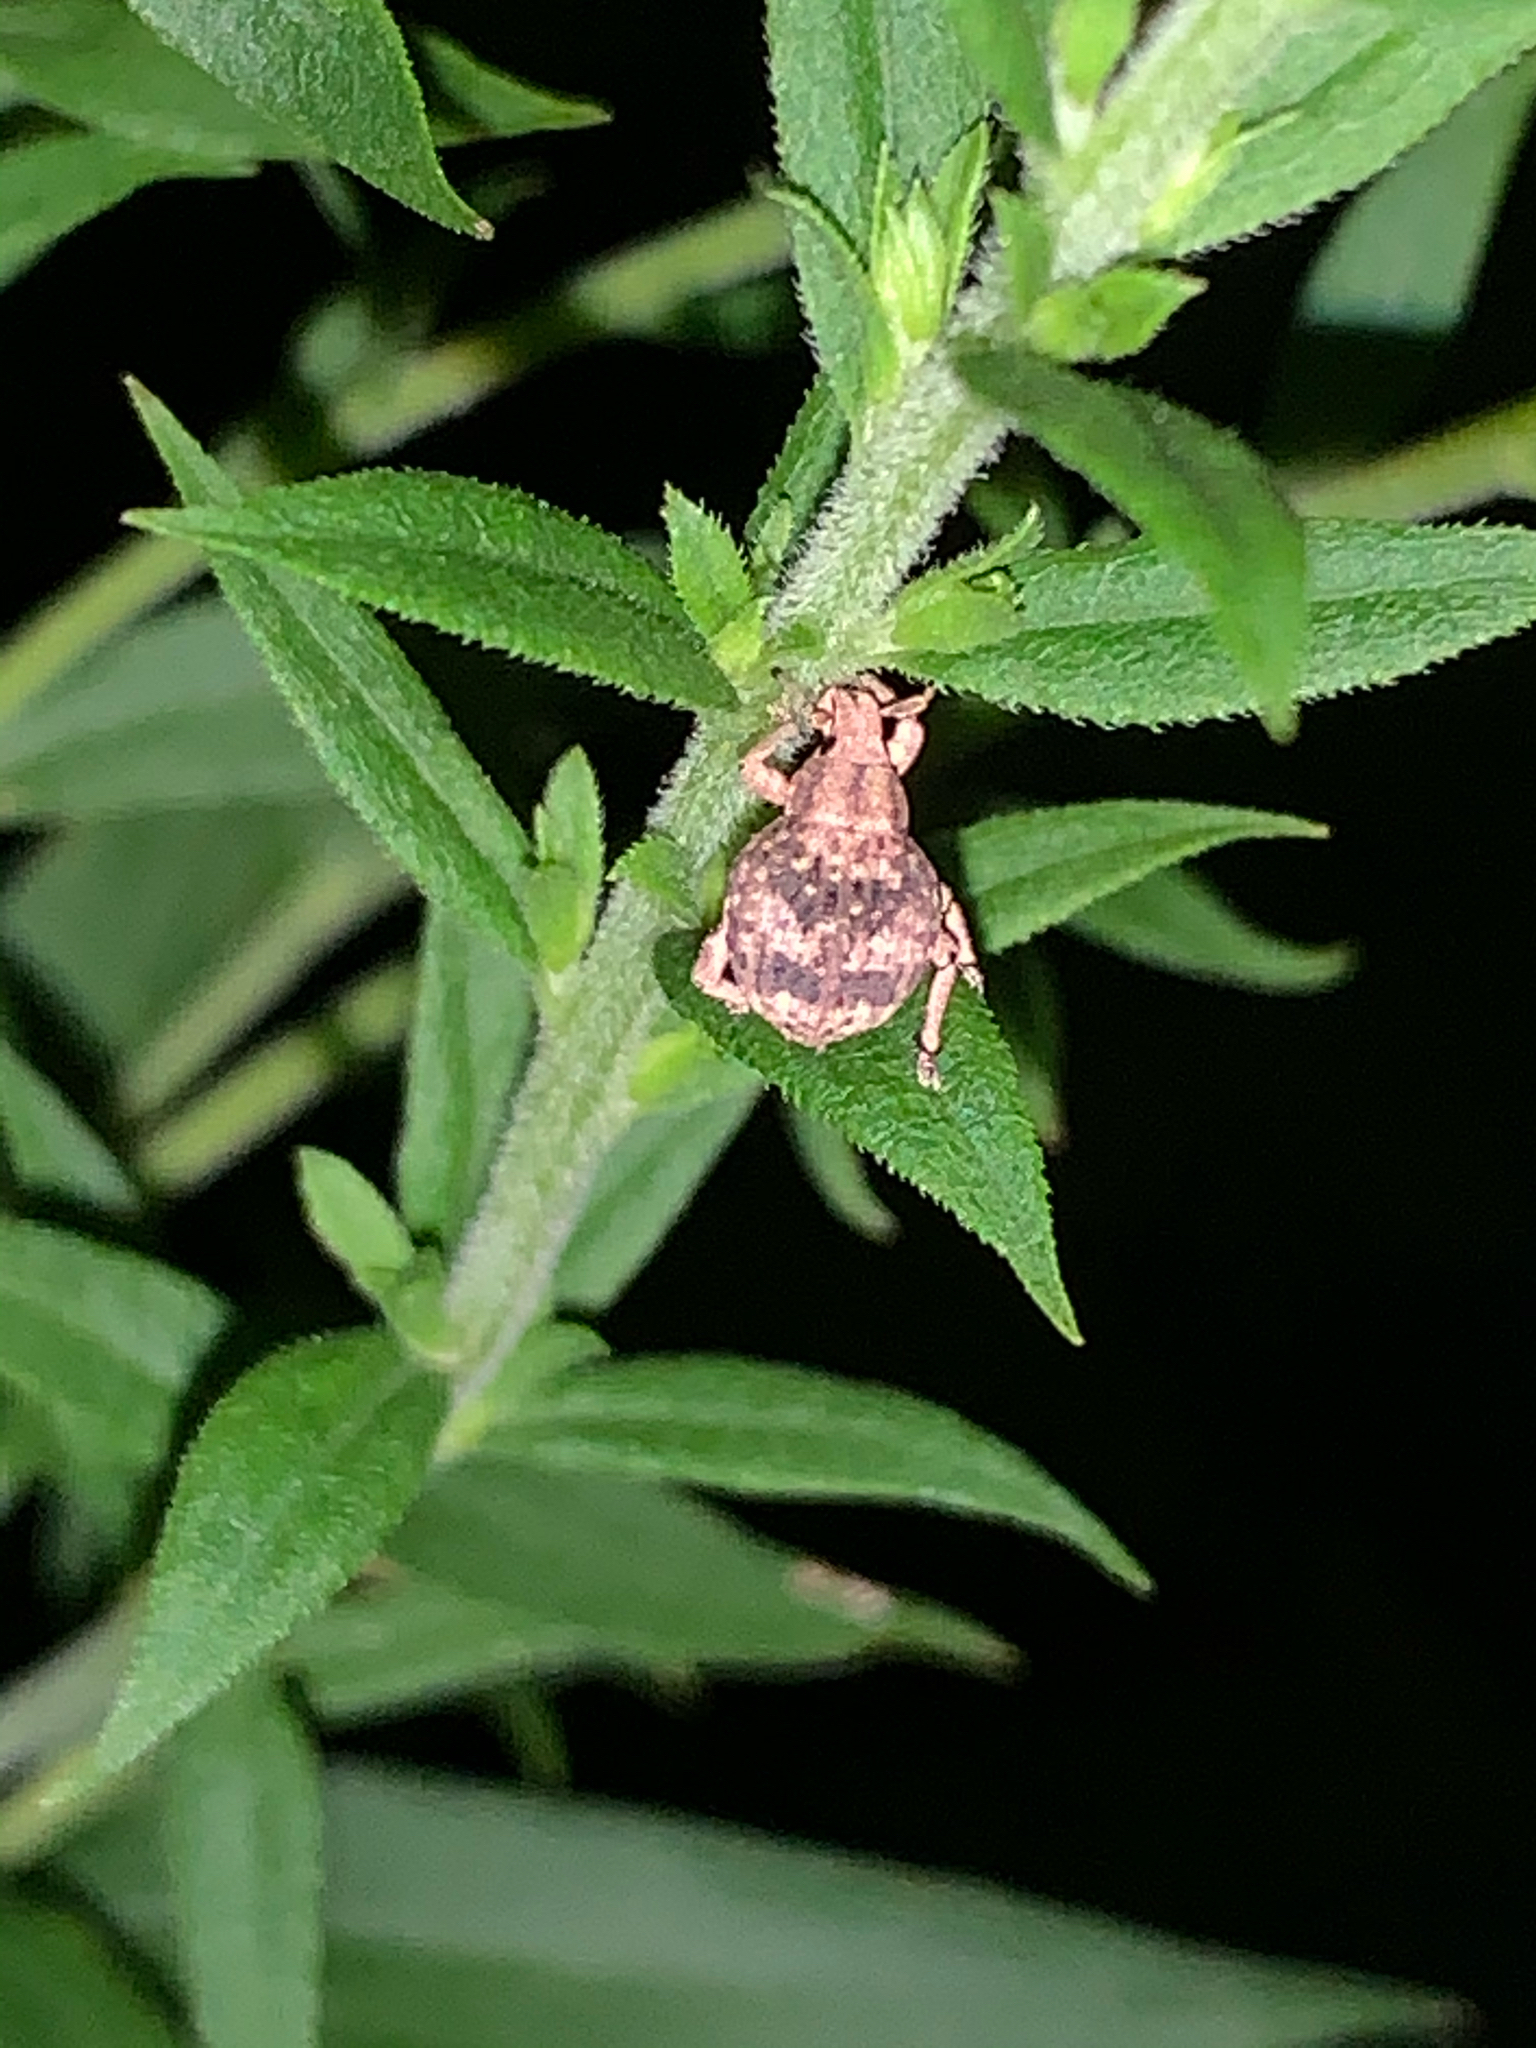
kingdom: Animalia
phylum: Arthropoda
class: Insecta
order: Coleoptera
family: Curculionidae
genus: Pseudocneorhinus
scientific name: Pseudocneorhinus bifasciatus
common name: Two-banded japanese weevil
